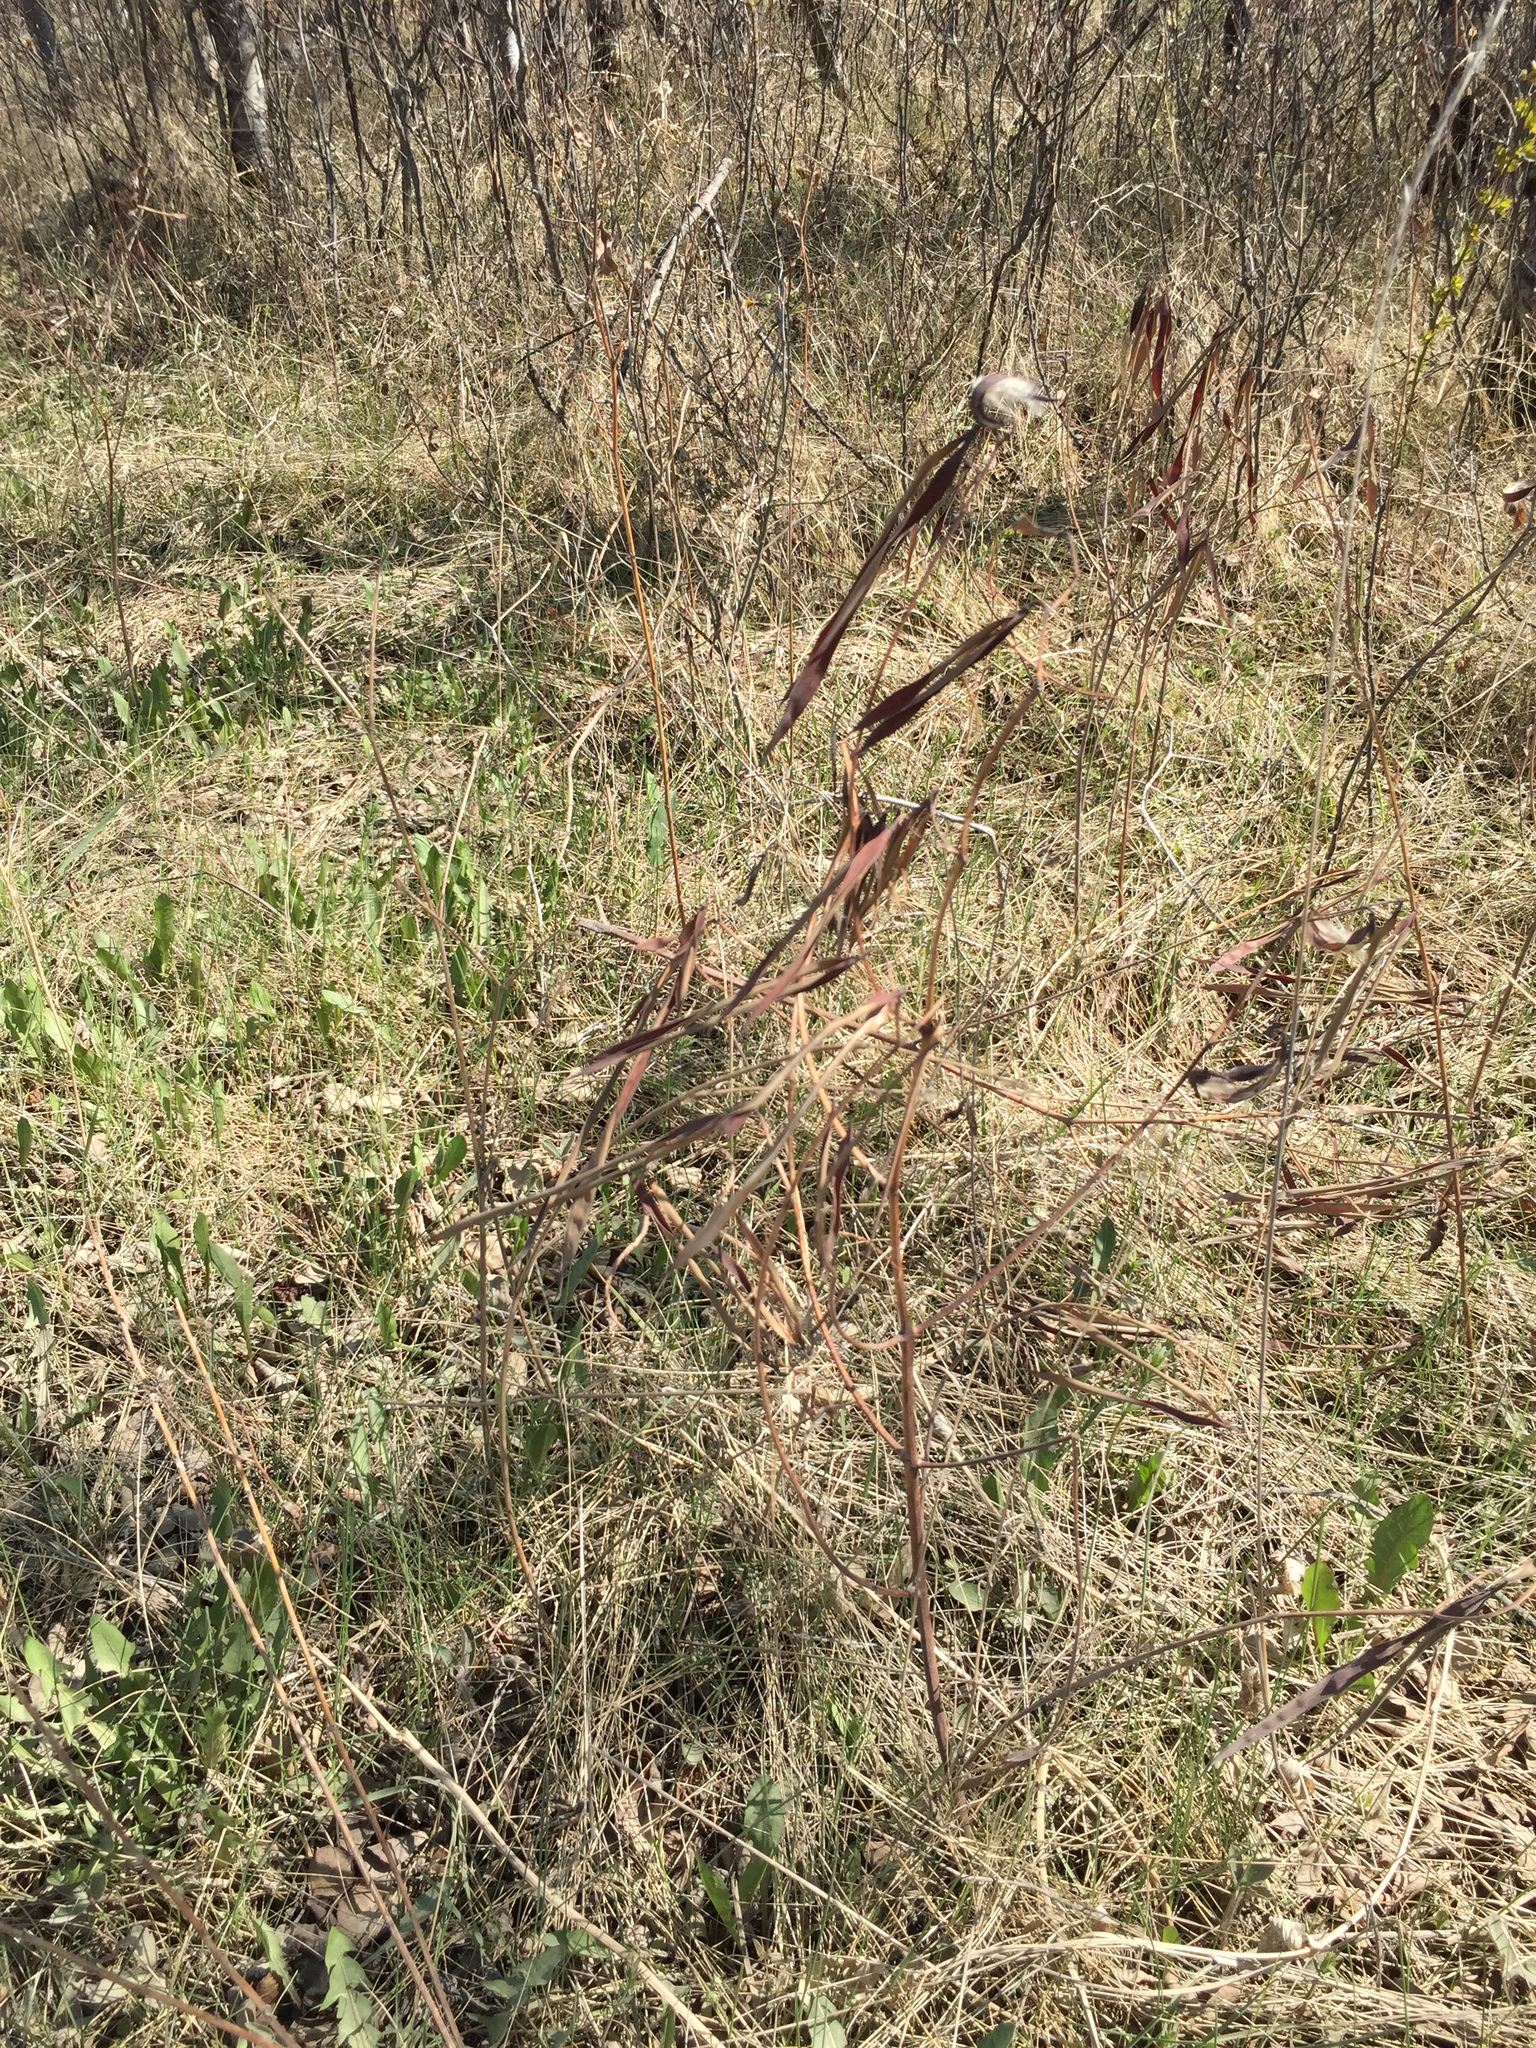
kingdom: Plantae
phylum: Tracheophyta
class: Magnoliopsida
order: Gentianales
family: Apocynaceae
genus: Apocynum
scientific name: Apocynum cannabinum
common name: Hemp dogbane
